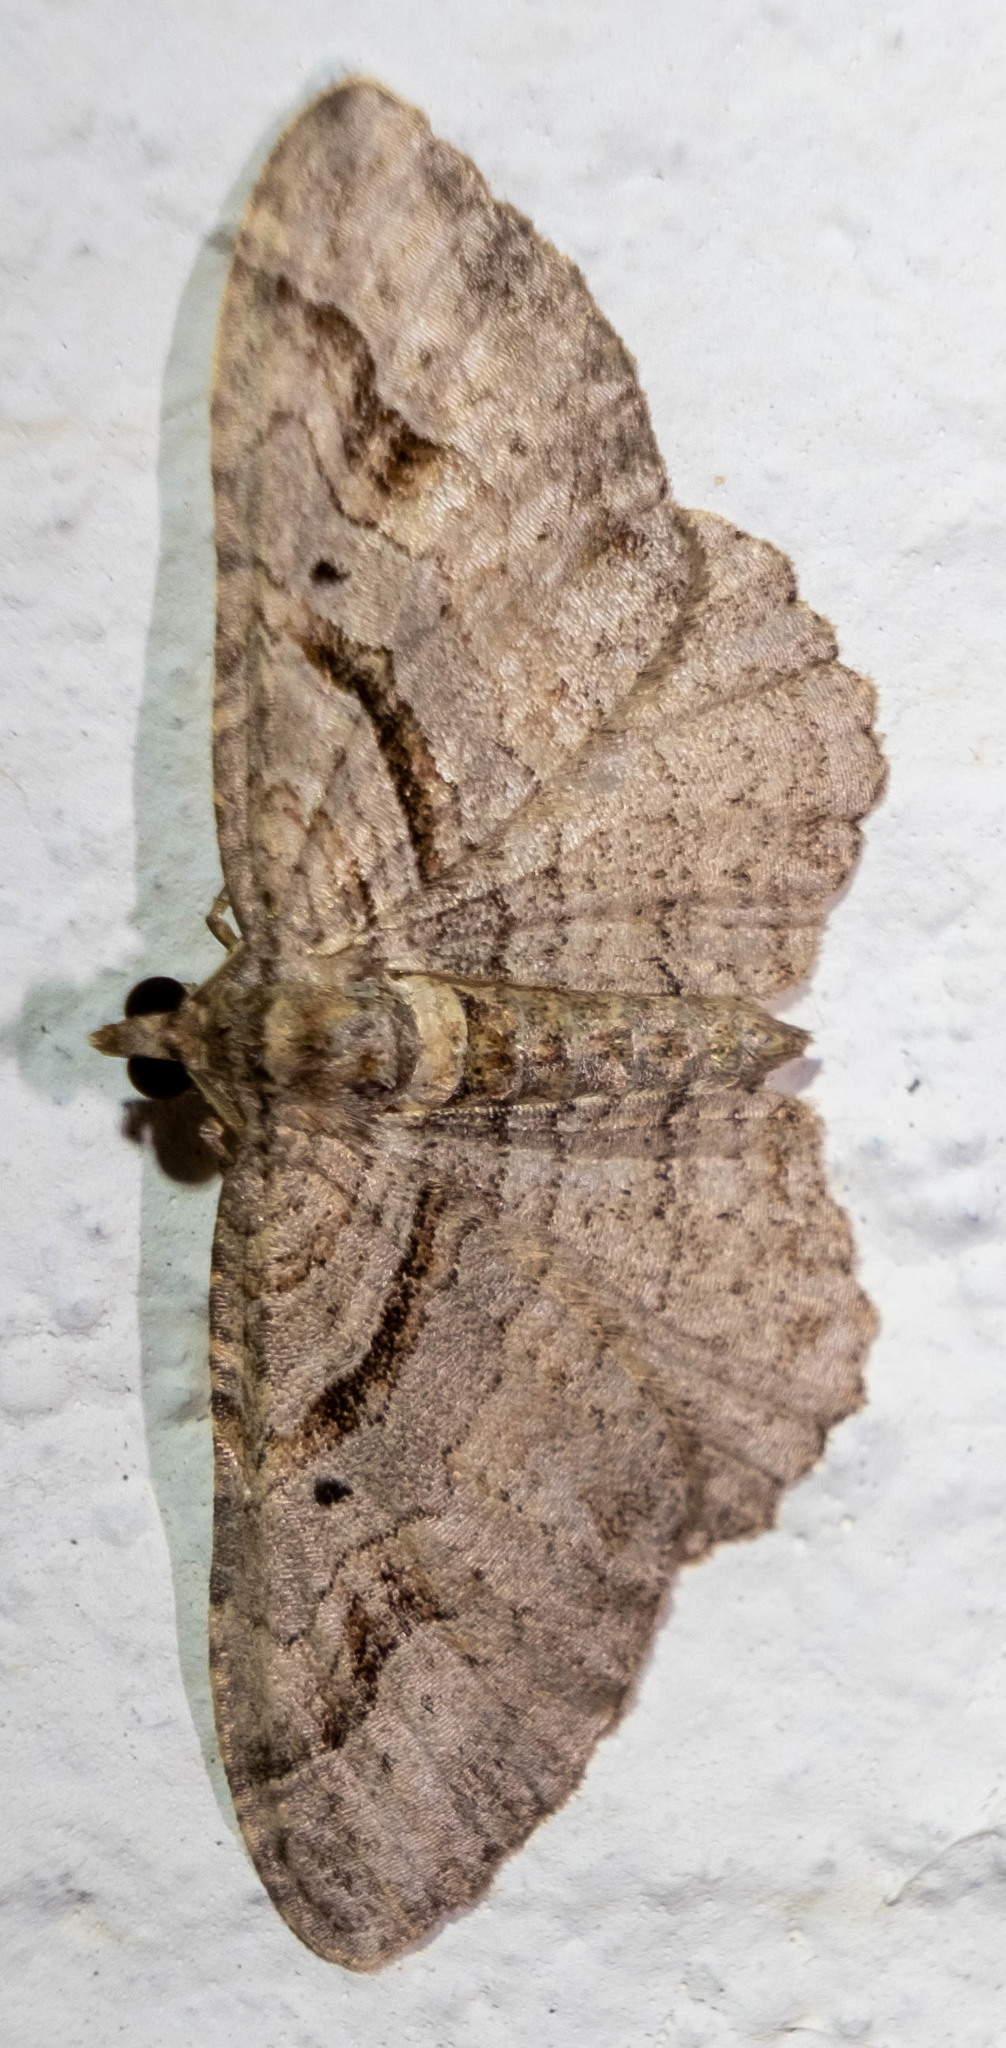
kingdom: Animalia
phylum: Arthropoda
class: Insecta
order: Lepidoptera
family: Geometridae
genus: Costaconvexa
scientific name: Costaconvexa centrostrigaria
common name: Bent-line carpet
